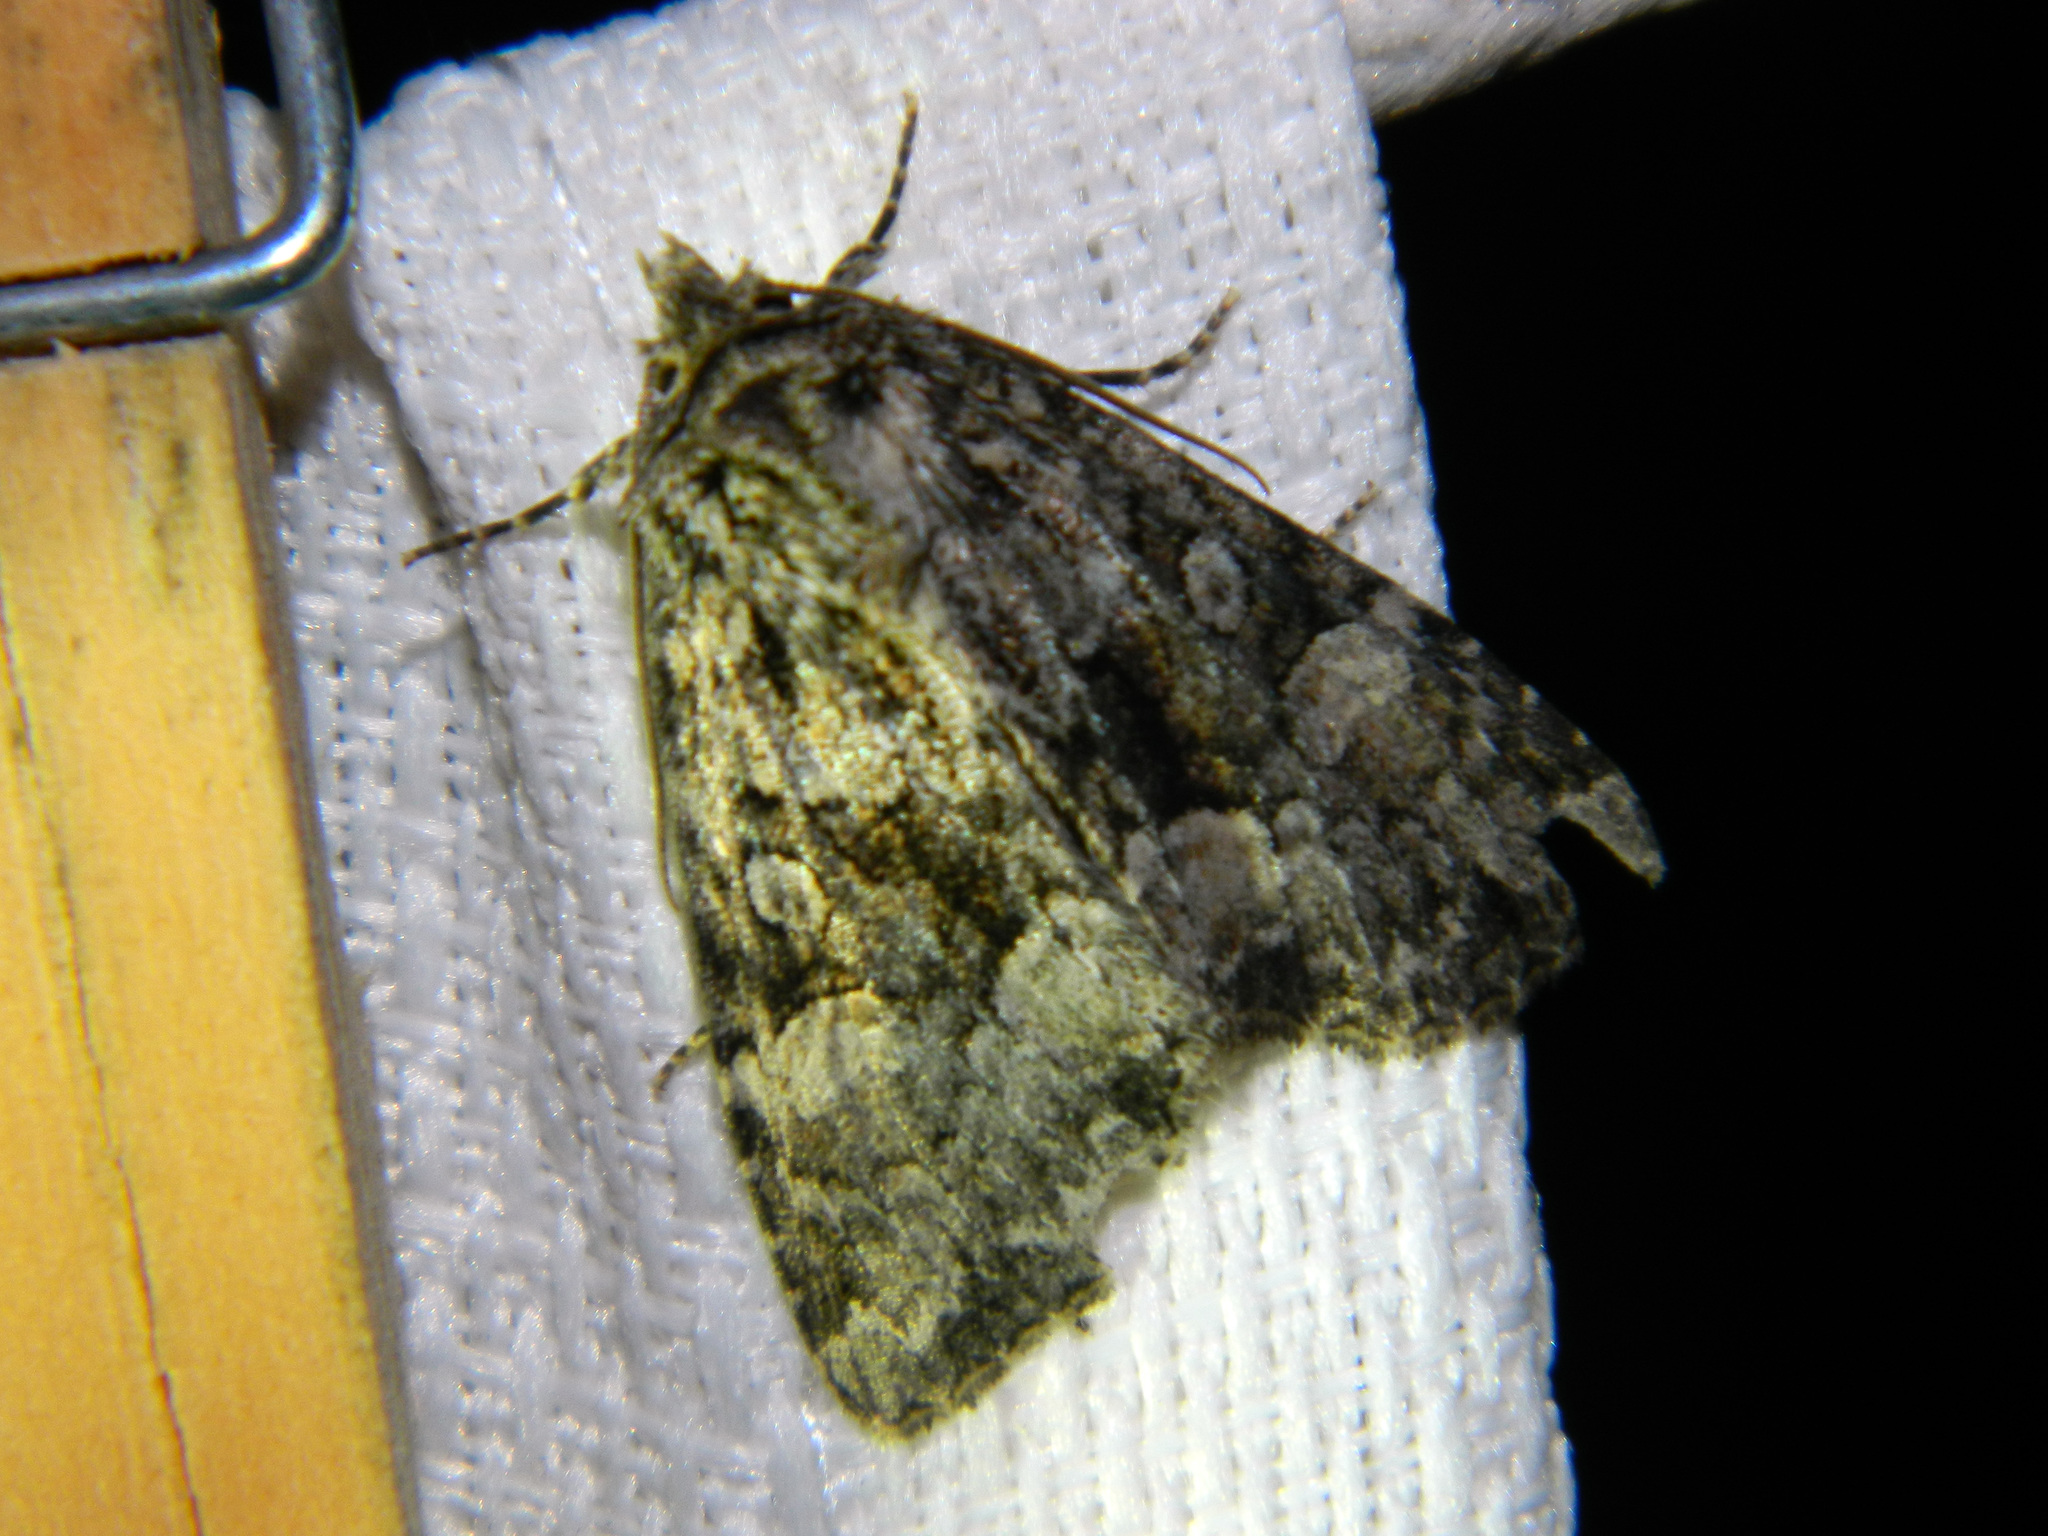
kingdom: Animalia
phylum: Arthropoda
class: Insecta
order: Lepidoptera
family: Noctuidae
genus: Platypolia
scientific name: Platypolia mactata
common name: Adorable brocade moth
